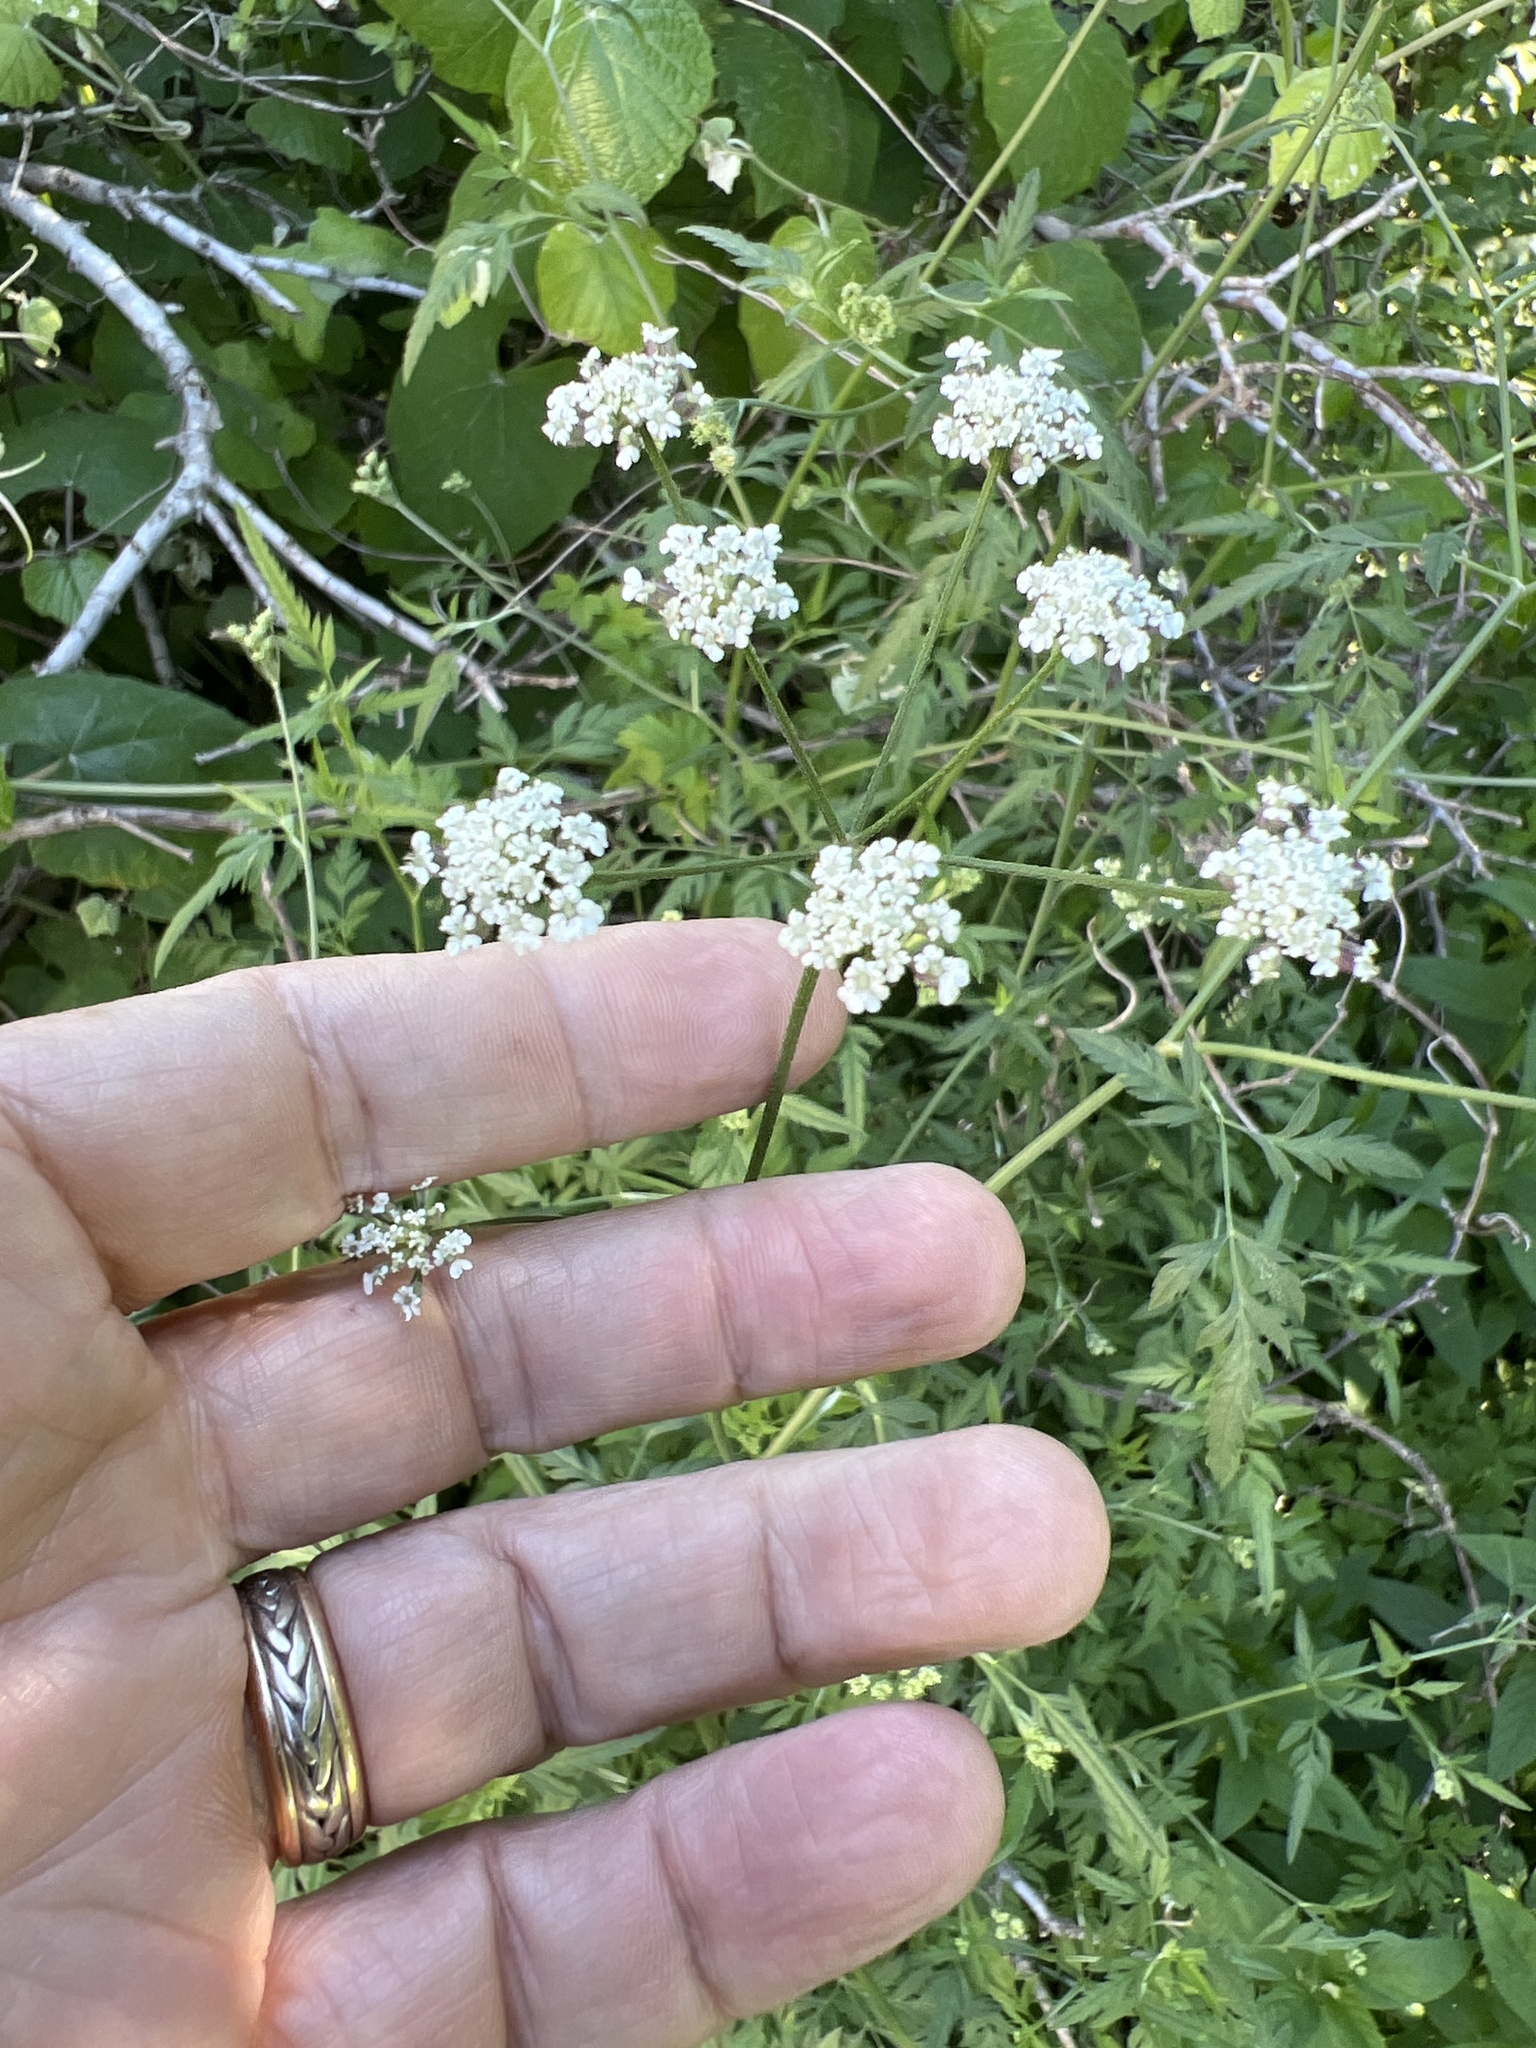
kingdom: Plantae
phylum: Tracheophyta
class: Magnoliopsida
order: Apiales
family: Apiaceae
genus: Torilis
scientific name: Torilis arvensis
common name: Spreading hedge-parsley
